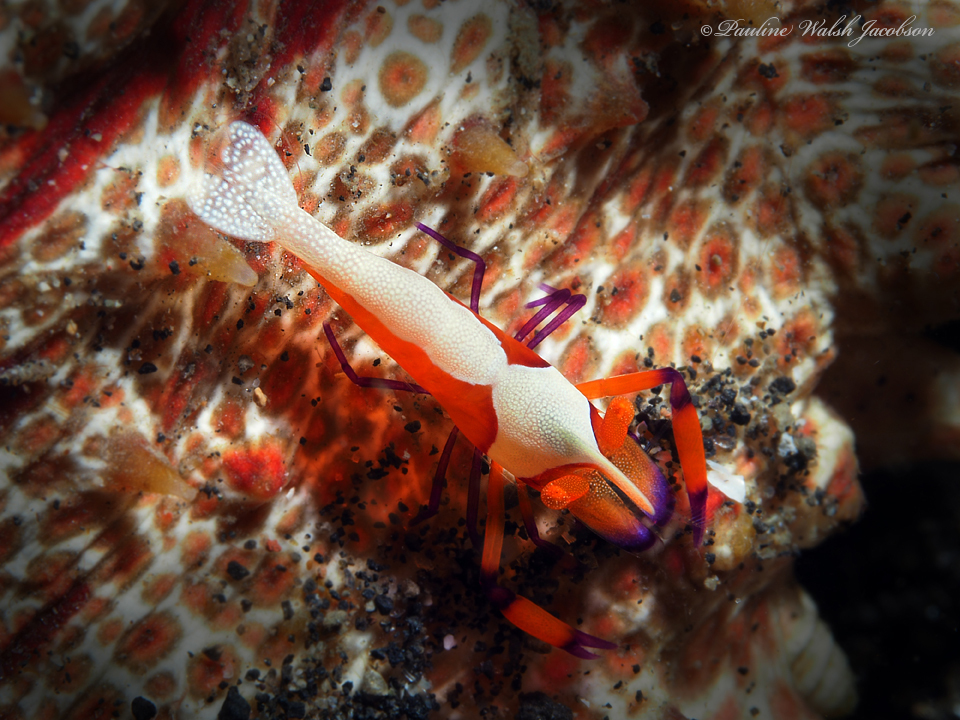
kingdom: Animalia
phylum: Arthropoda
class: Malacostraca
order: Decapoda
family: Palaemonidae
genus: Periclimenes
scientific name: Periclimenes rex
